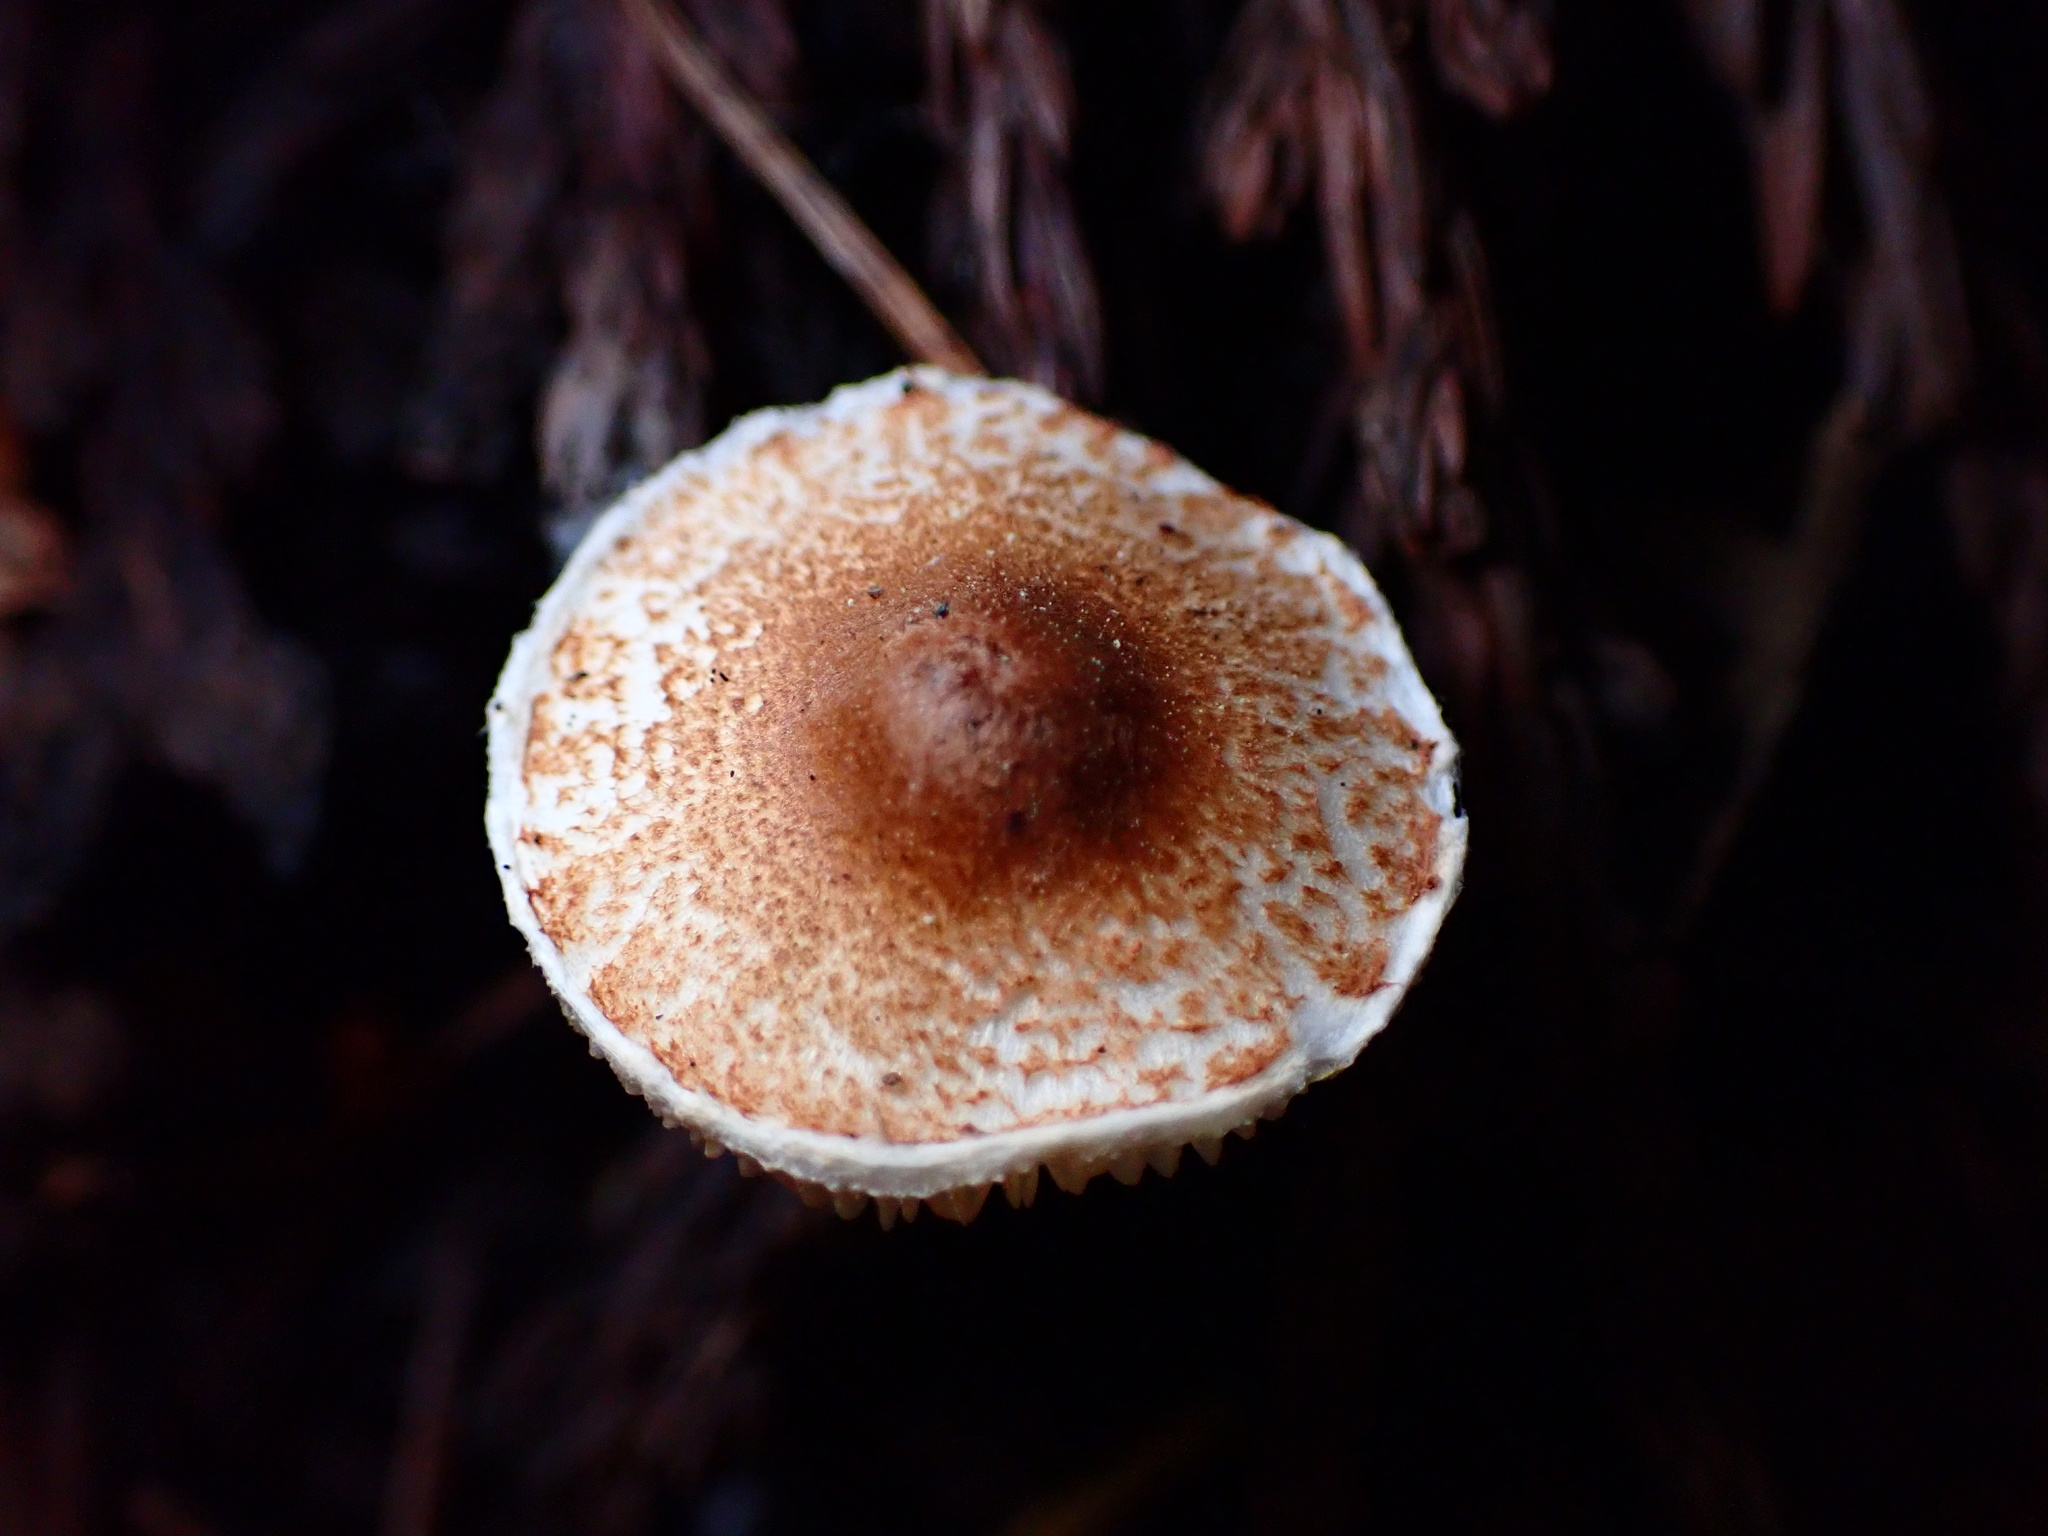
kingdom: Fungi
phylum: Basidiomycota
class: Agaricomycetes
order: Agaricales
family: Agaricaceae
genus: Lepiota
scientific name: Lepiota castanea
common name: Chestnut dapperling
